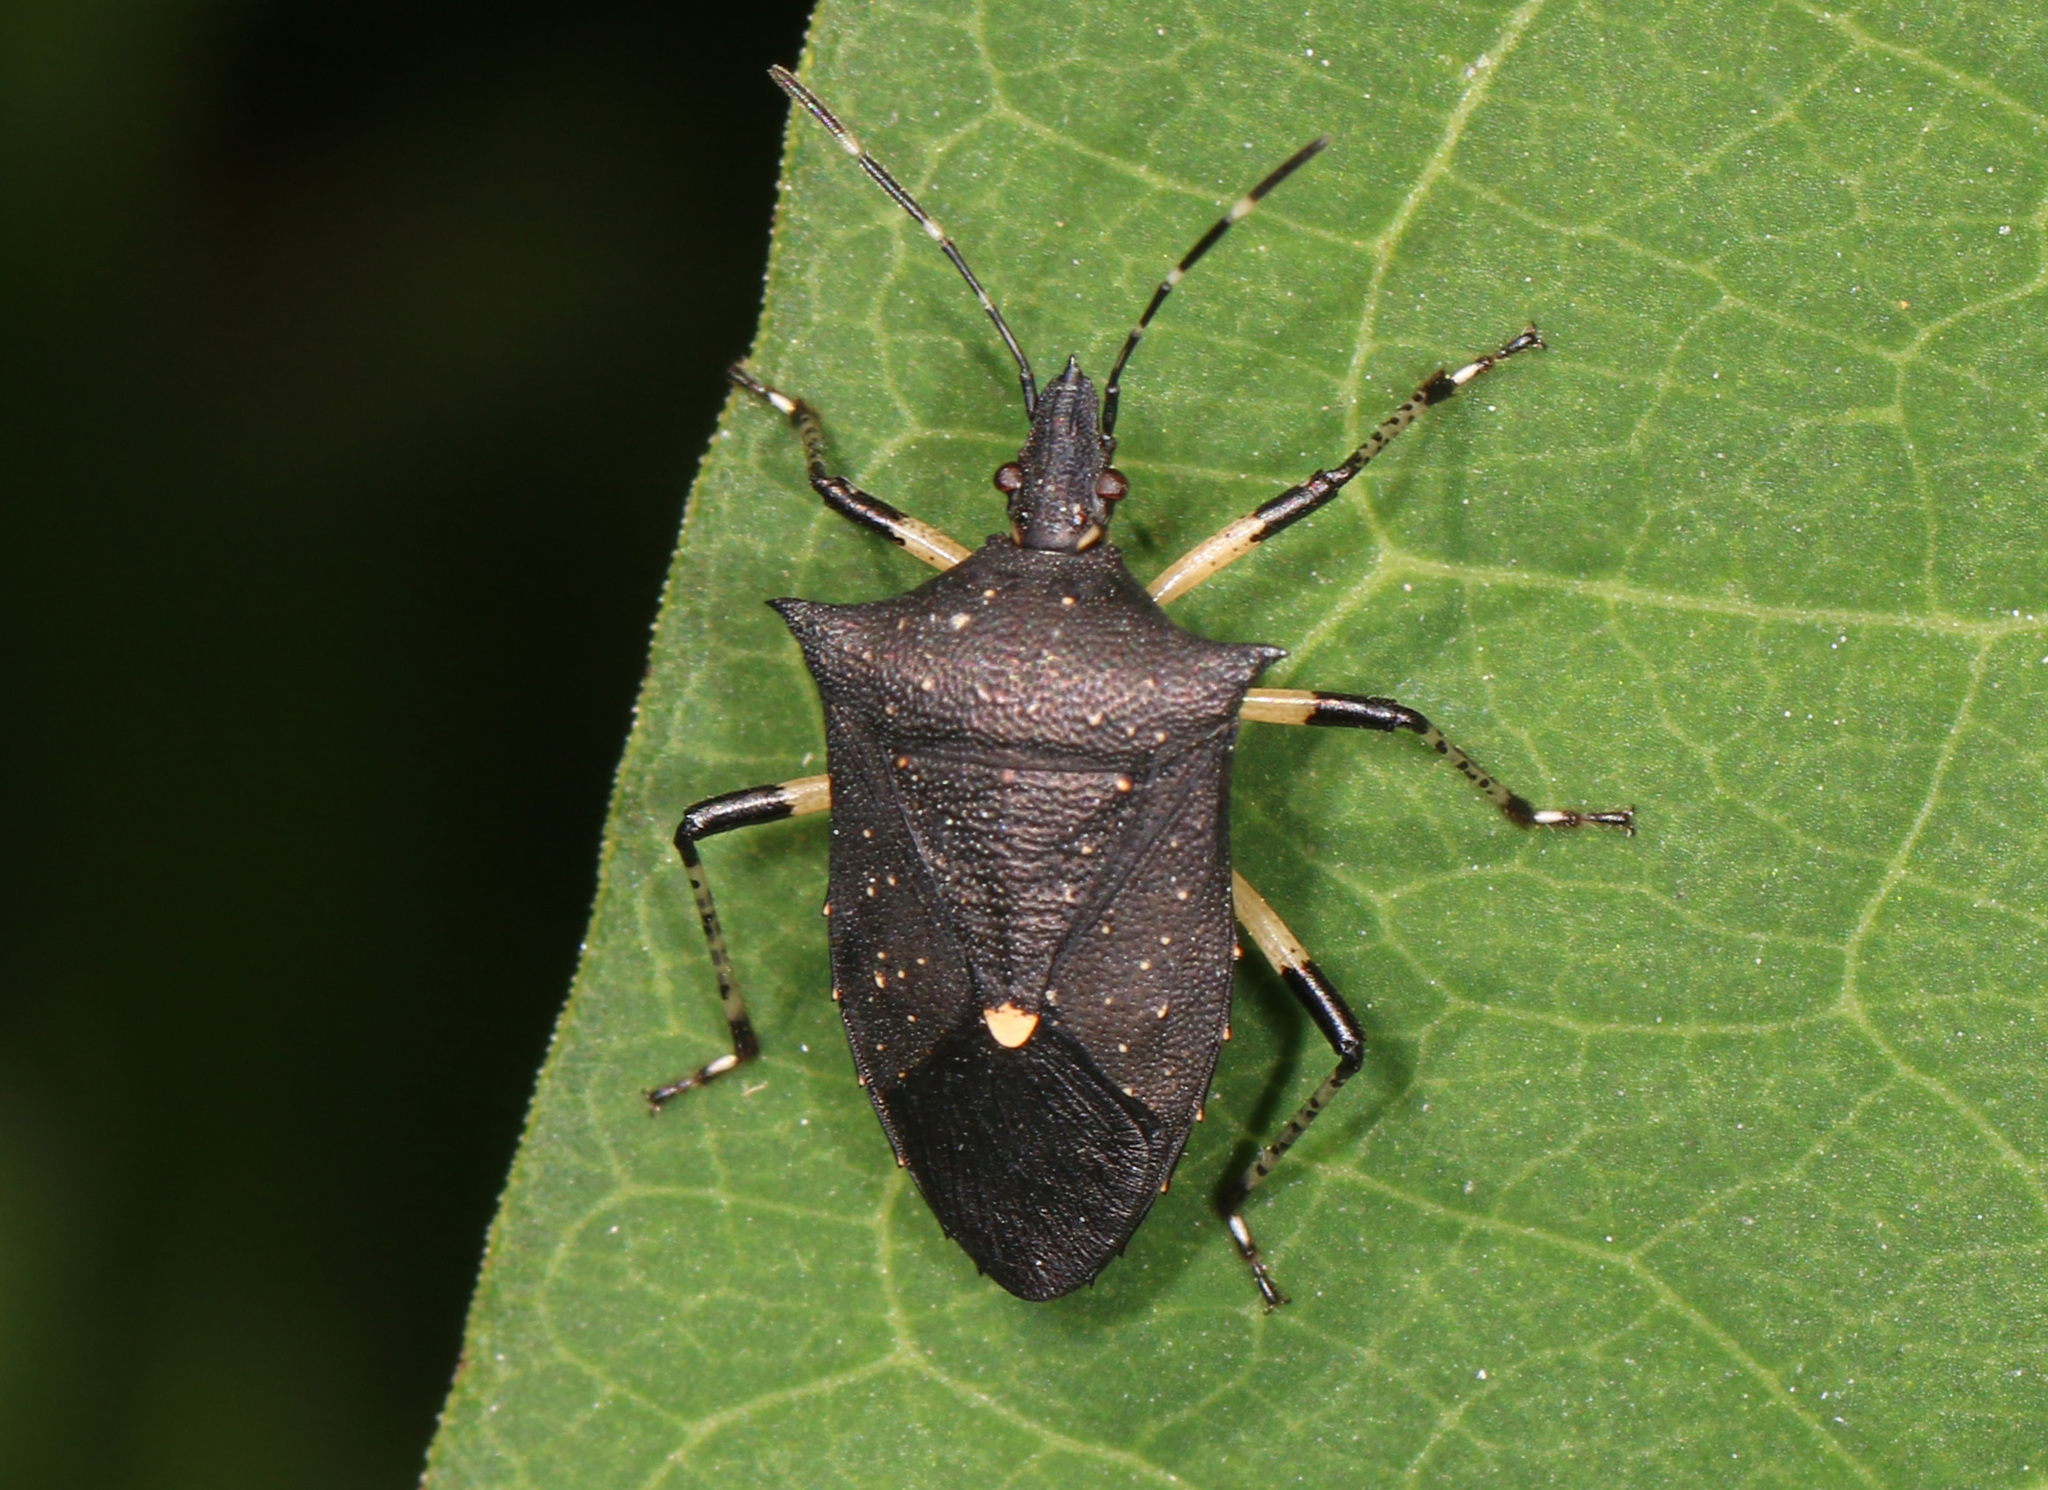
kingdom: Animalia
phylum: Arthropoda
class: Insecta
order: Hemiptera
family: Pentatomidae
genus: Proxys
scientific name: Proxys punctulatus
